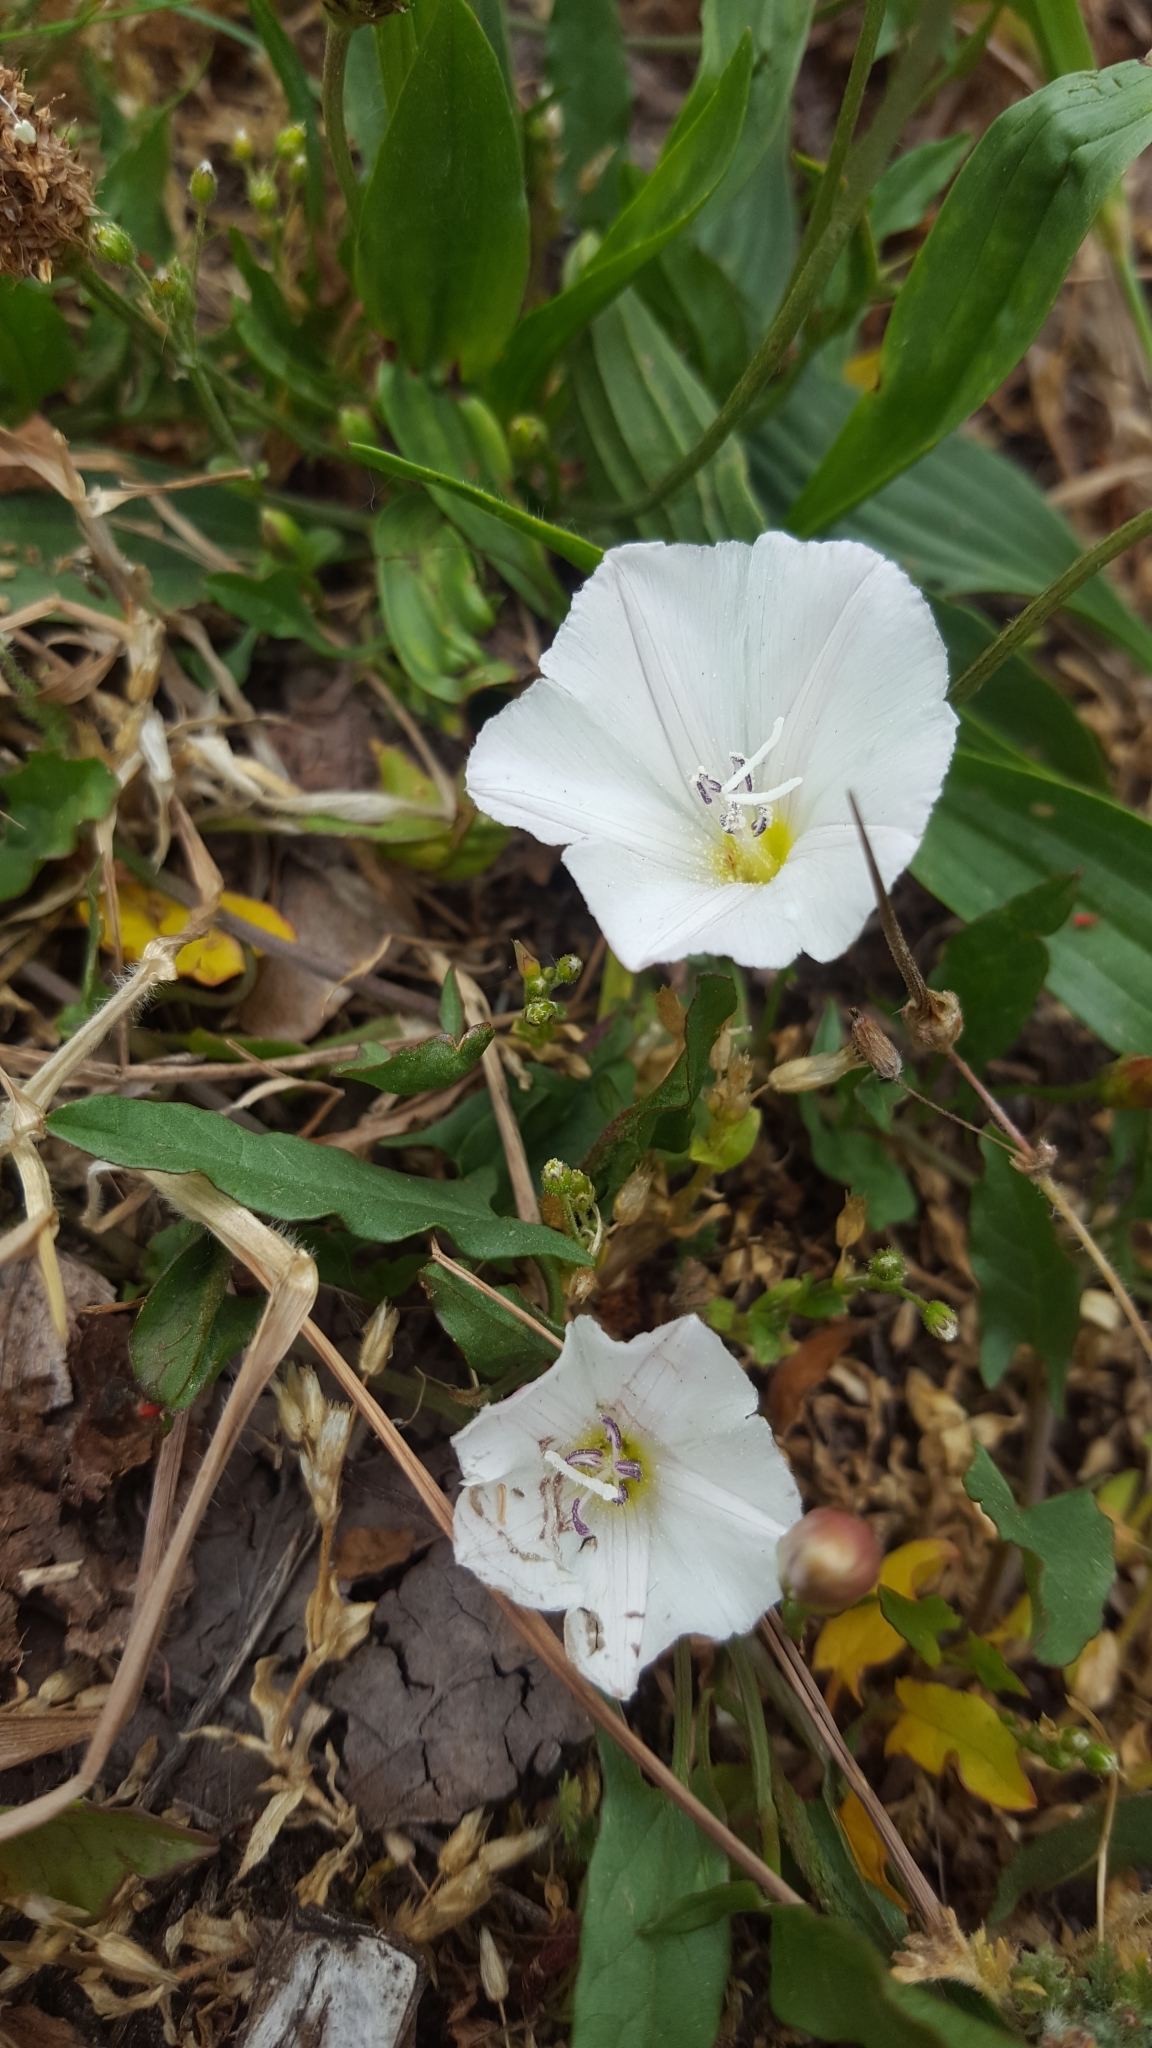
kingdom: Plantae
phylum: Tracheophyta
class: Magnoliopsida
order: Solanales
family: Convolvulaceae
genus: Convolvulus
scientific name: Convolvulus arvensis
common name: Field bindweed
